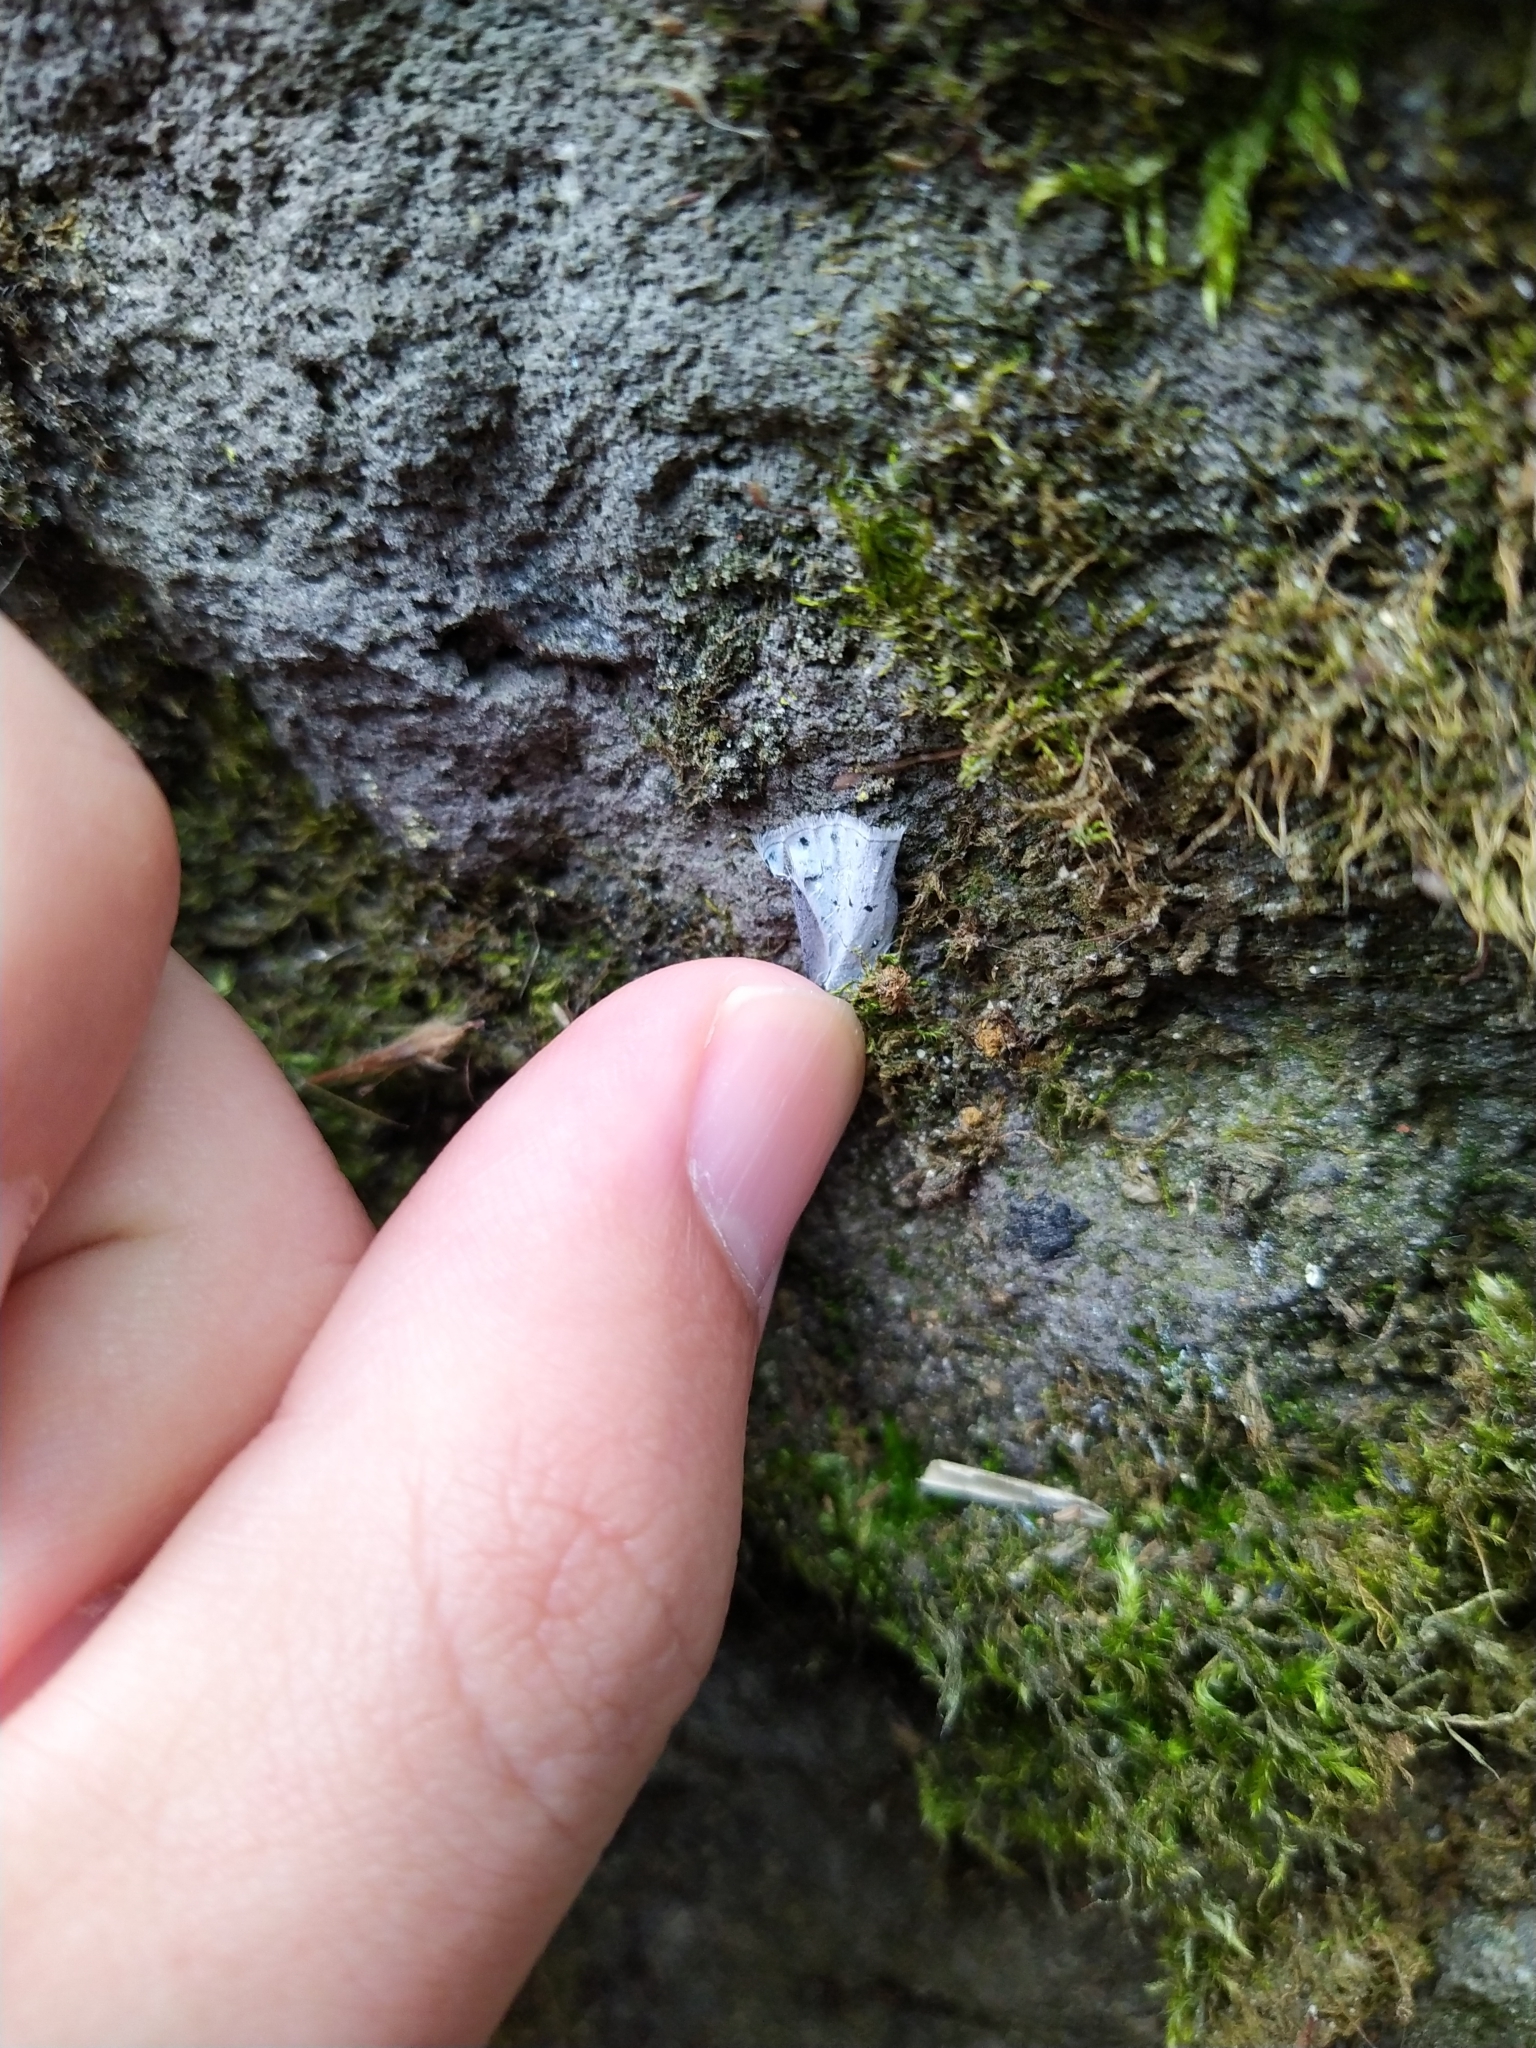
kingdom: Animalia
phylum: Arthropoda
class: Insecta
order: Lepidoptera
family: Lycaenidae
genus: Celastrina
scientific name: Celastrina argiolus
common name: Holly blue
